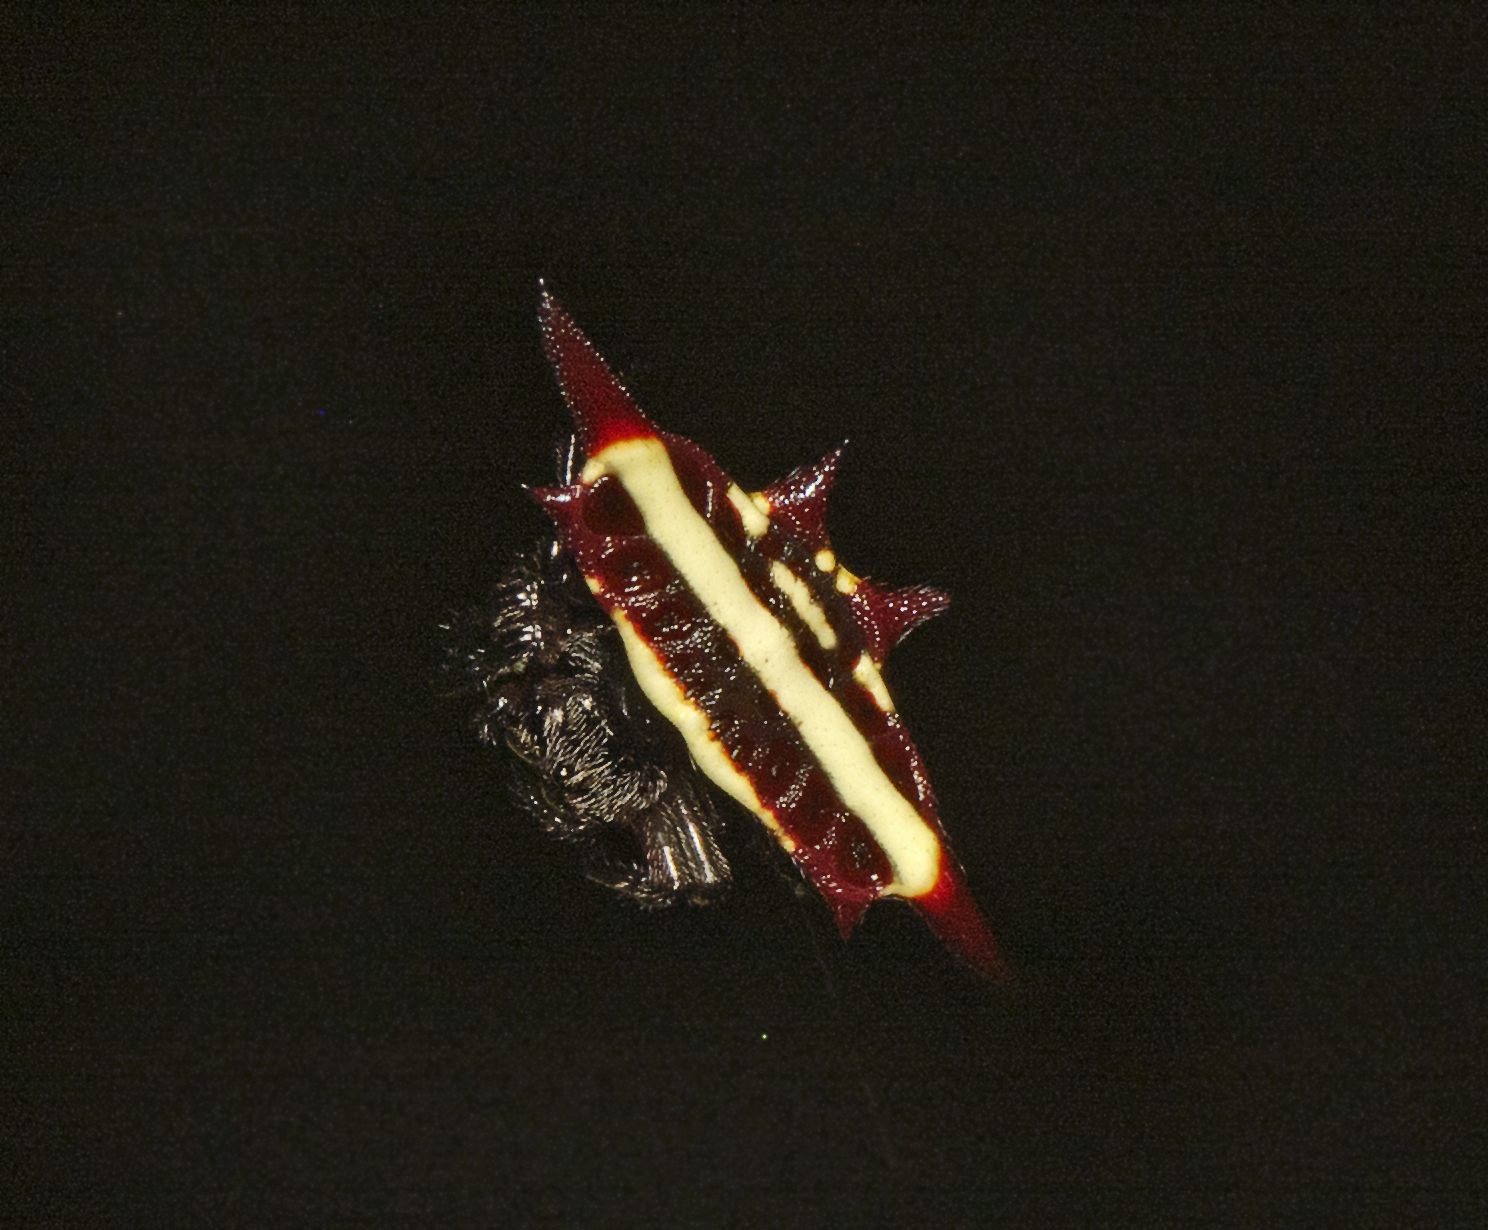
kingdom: Animalia
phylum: Arthropoda
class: Arachnida
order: Araneae
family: Araneidae
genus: Gasteracantha
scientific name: Gasteracantha fornicata
